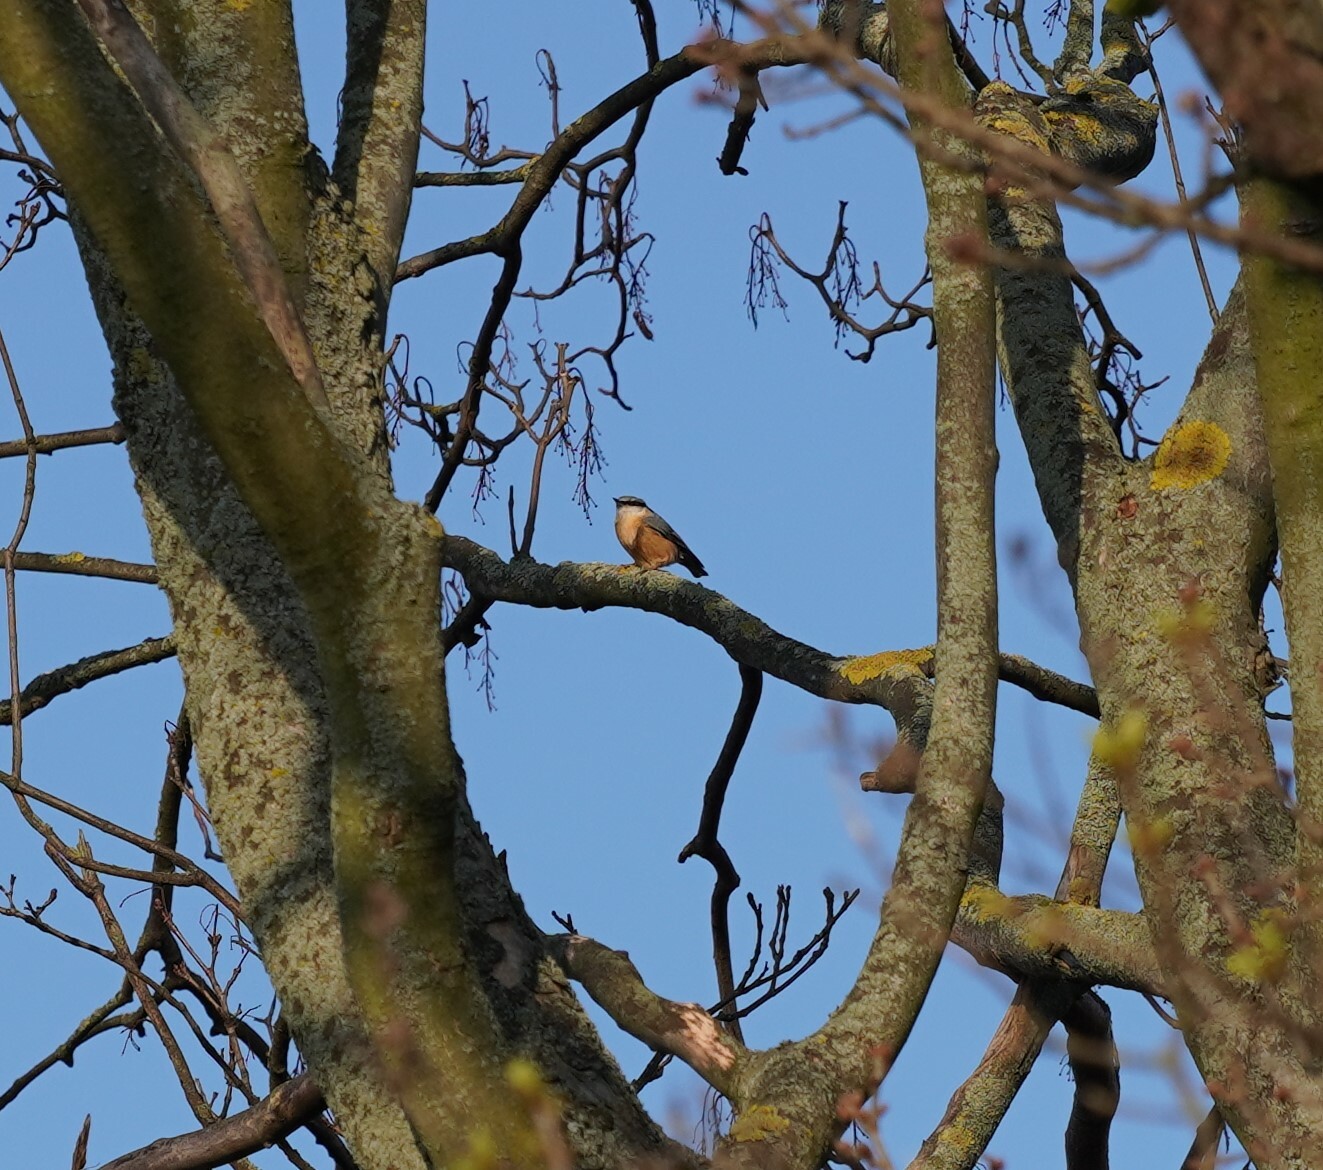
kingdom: Animalia
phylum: Chordata
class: Aves
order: Passeriformes
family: Sittidae
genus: Sitta
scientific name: Sitta europaea
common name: Eurasian nuthatch
